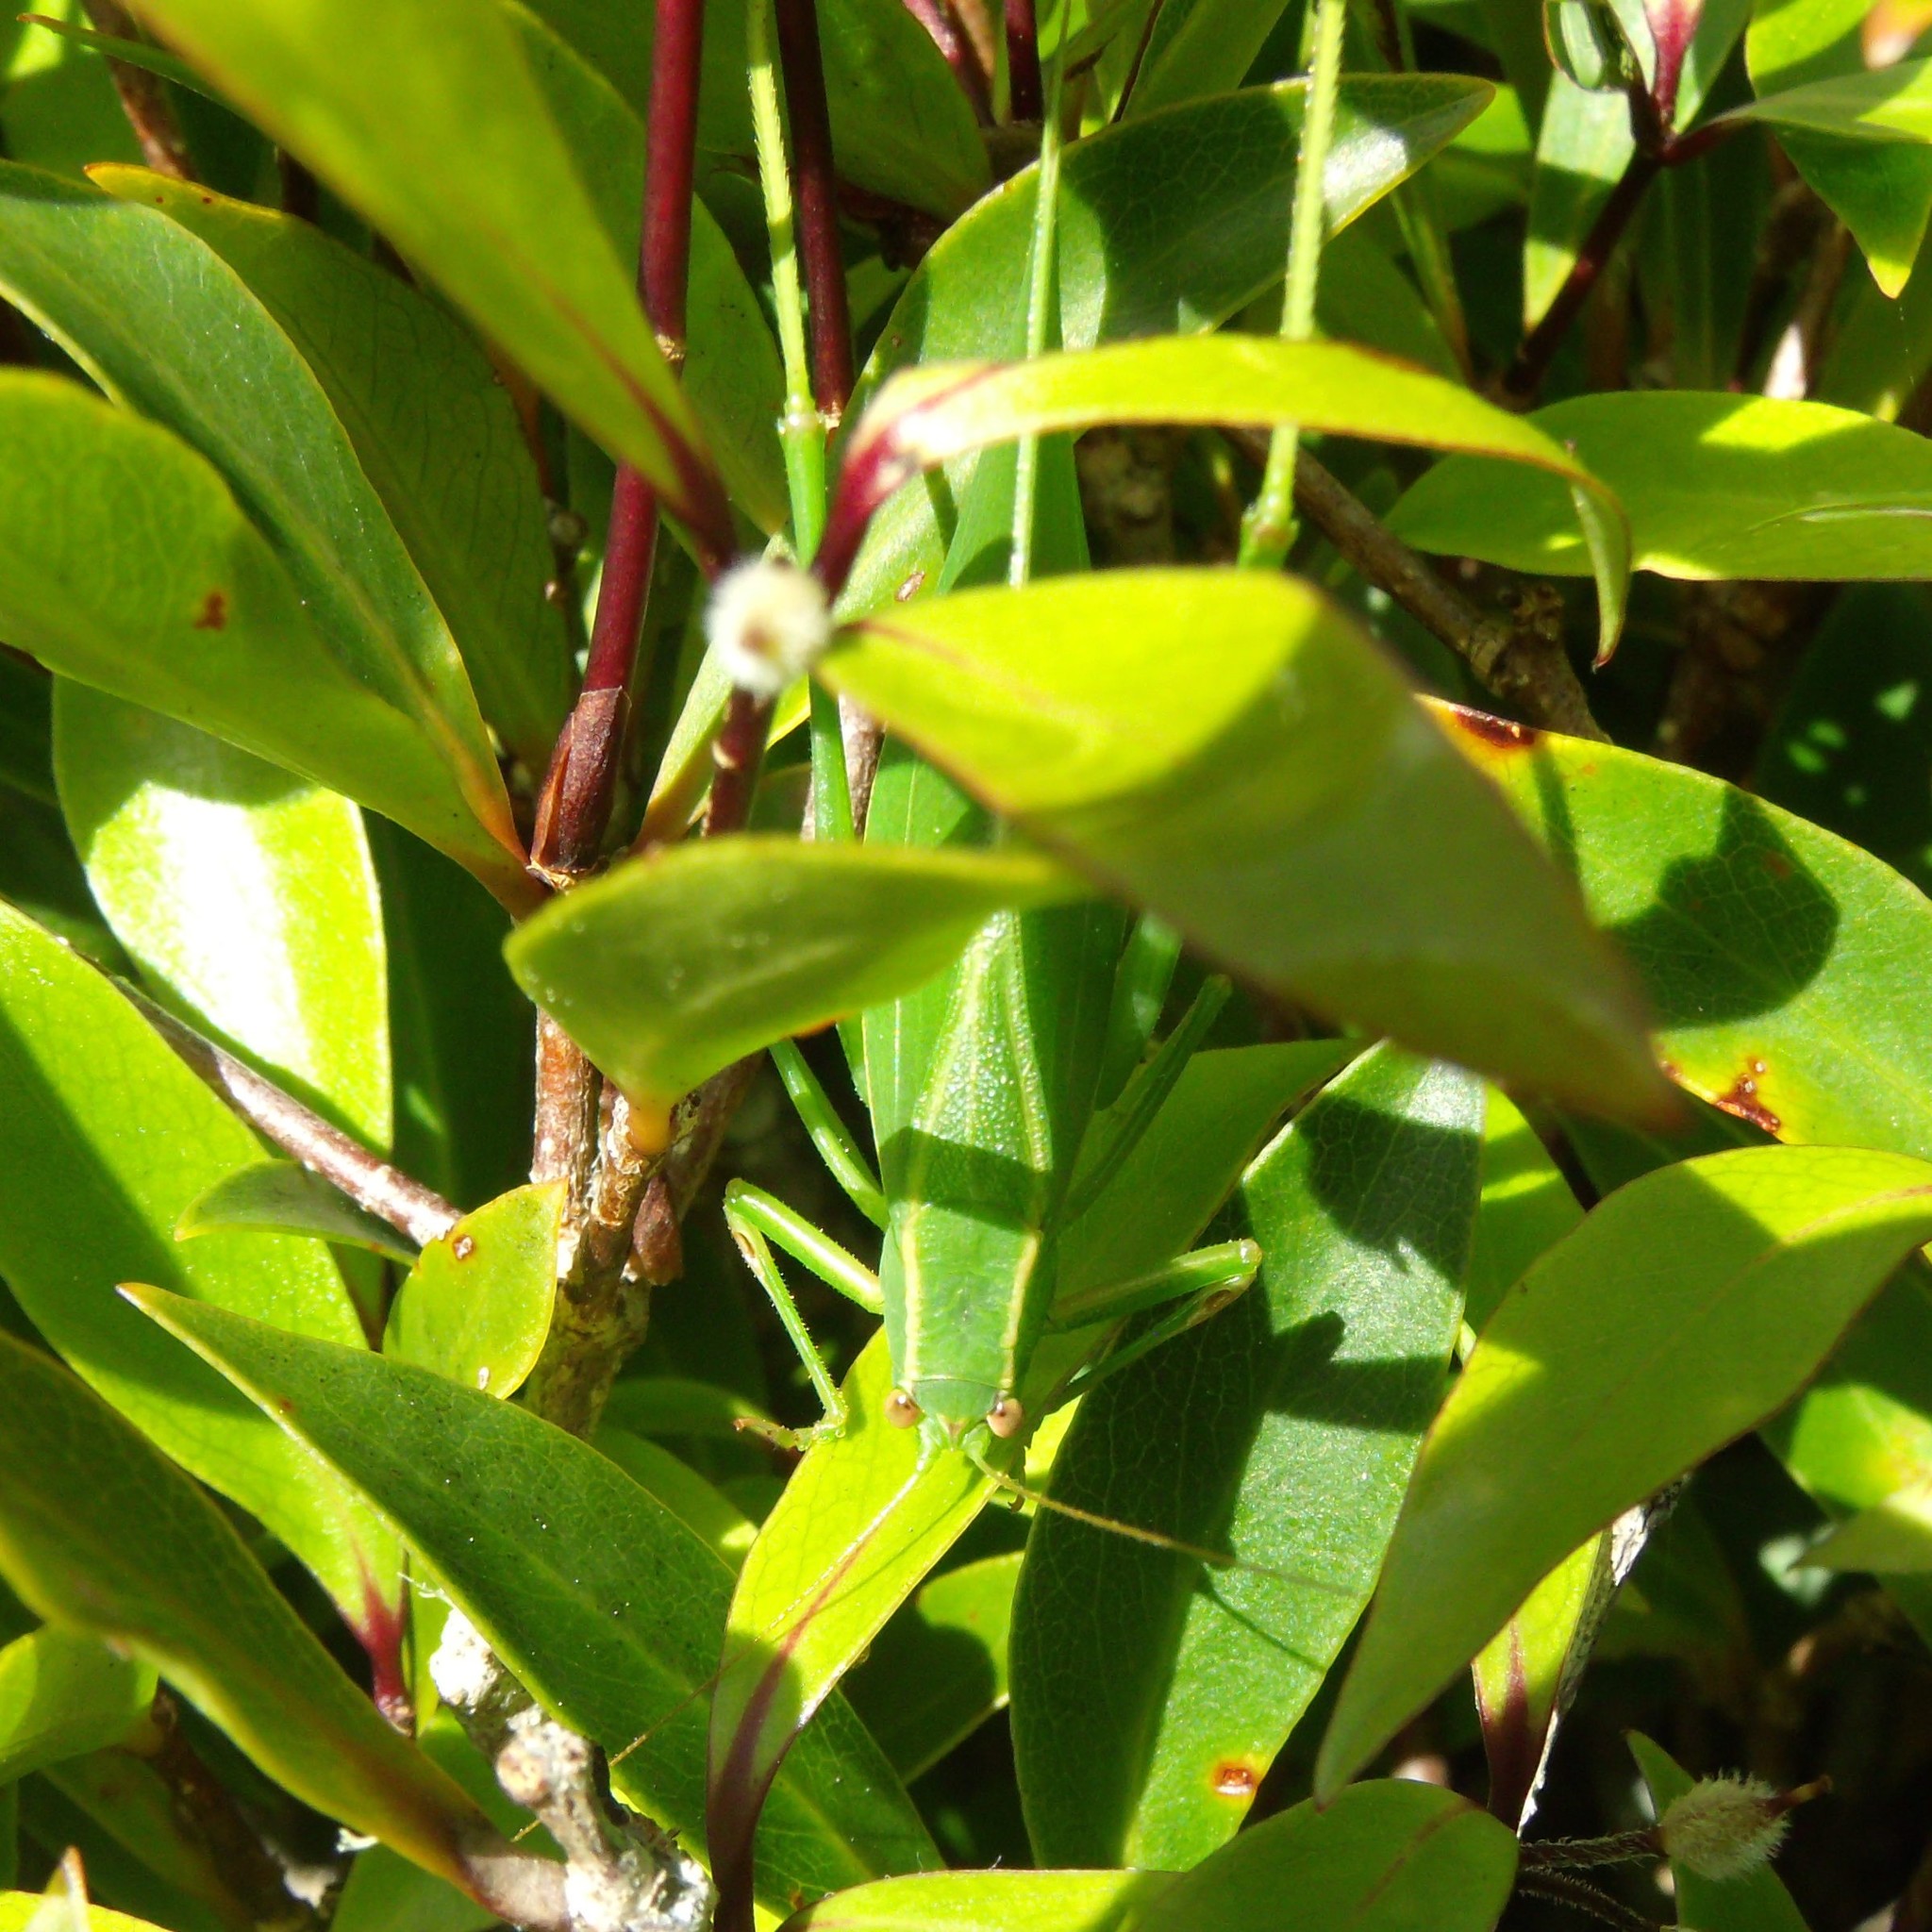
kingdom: Animalia
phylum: Arthropoda
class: Insecta
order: Orthoptera
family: Tettigoniidae
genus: Caedicia
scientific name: Caedicia simplex
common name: Common garden katydid
